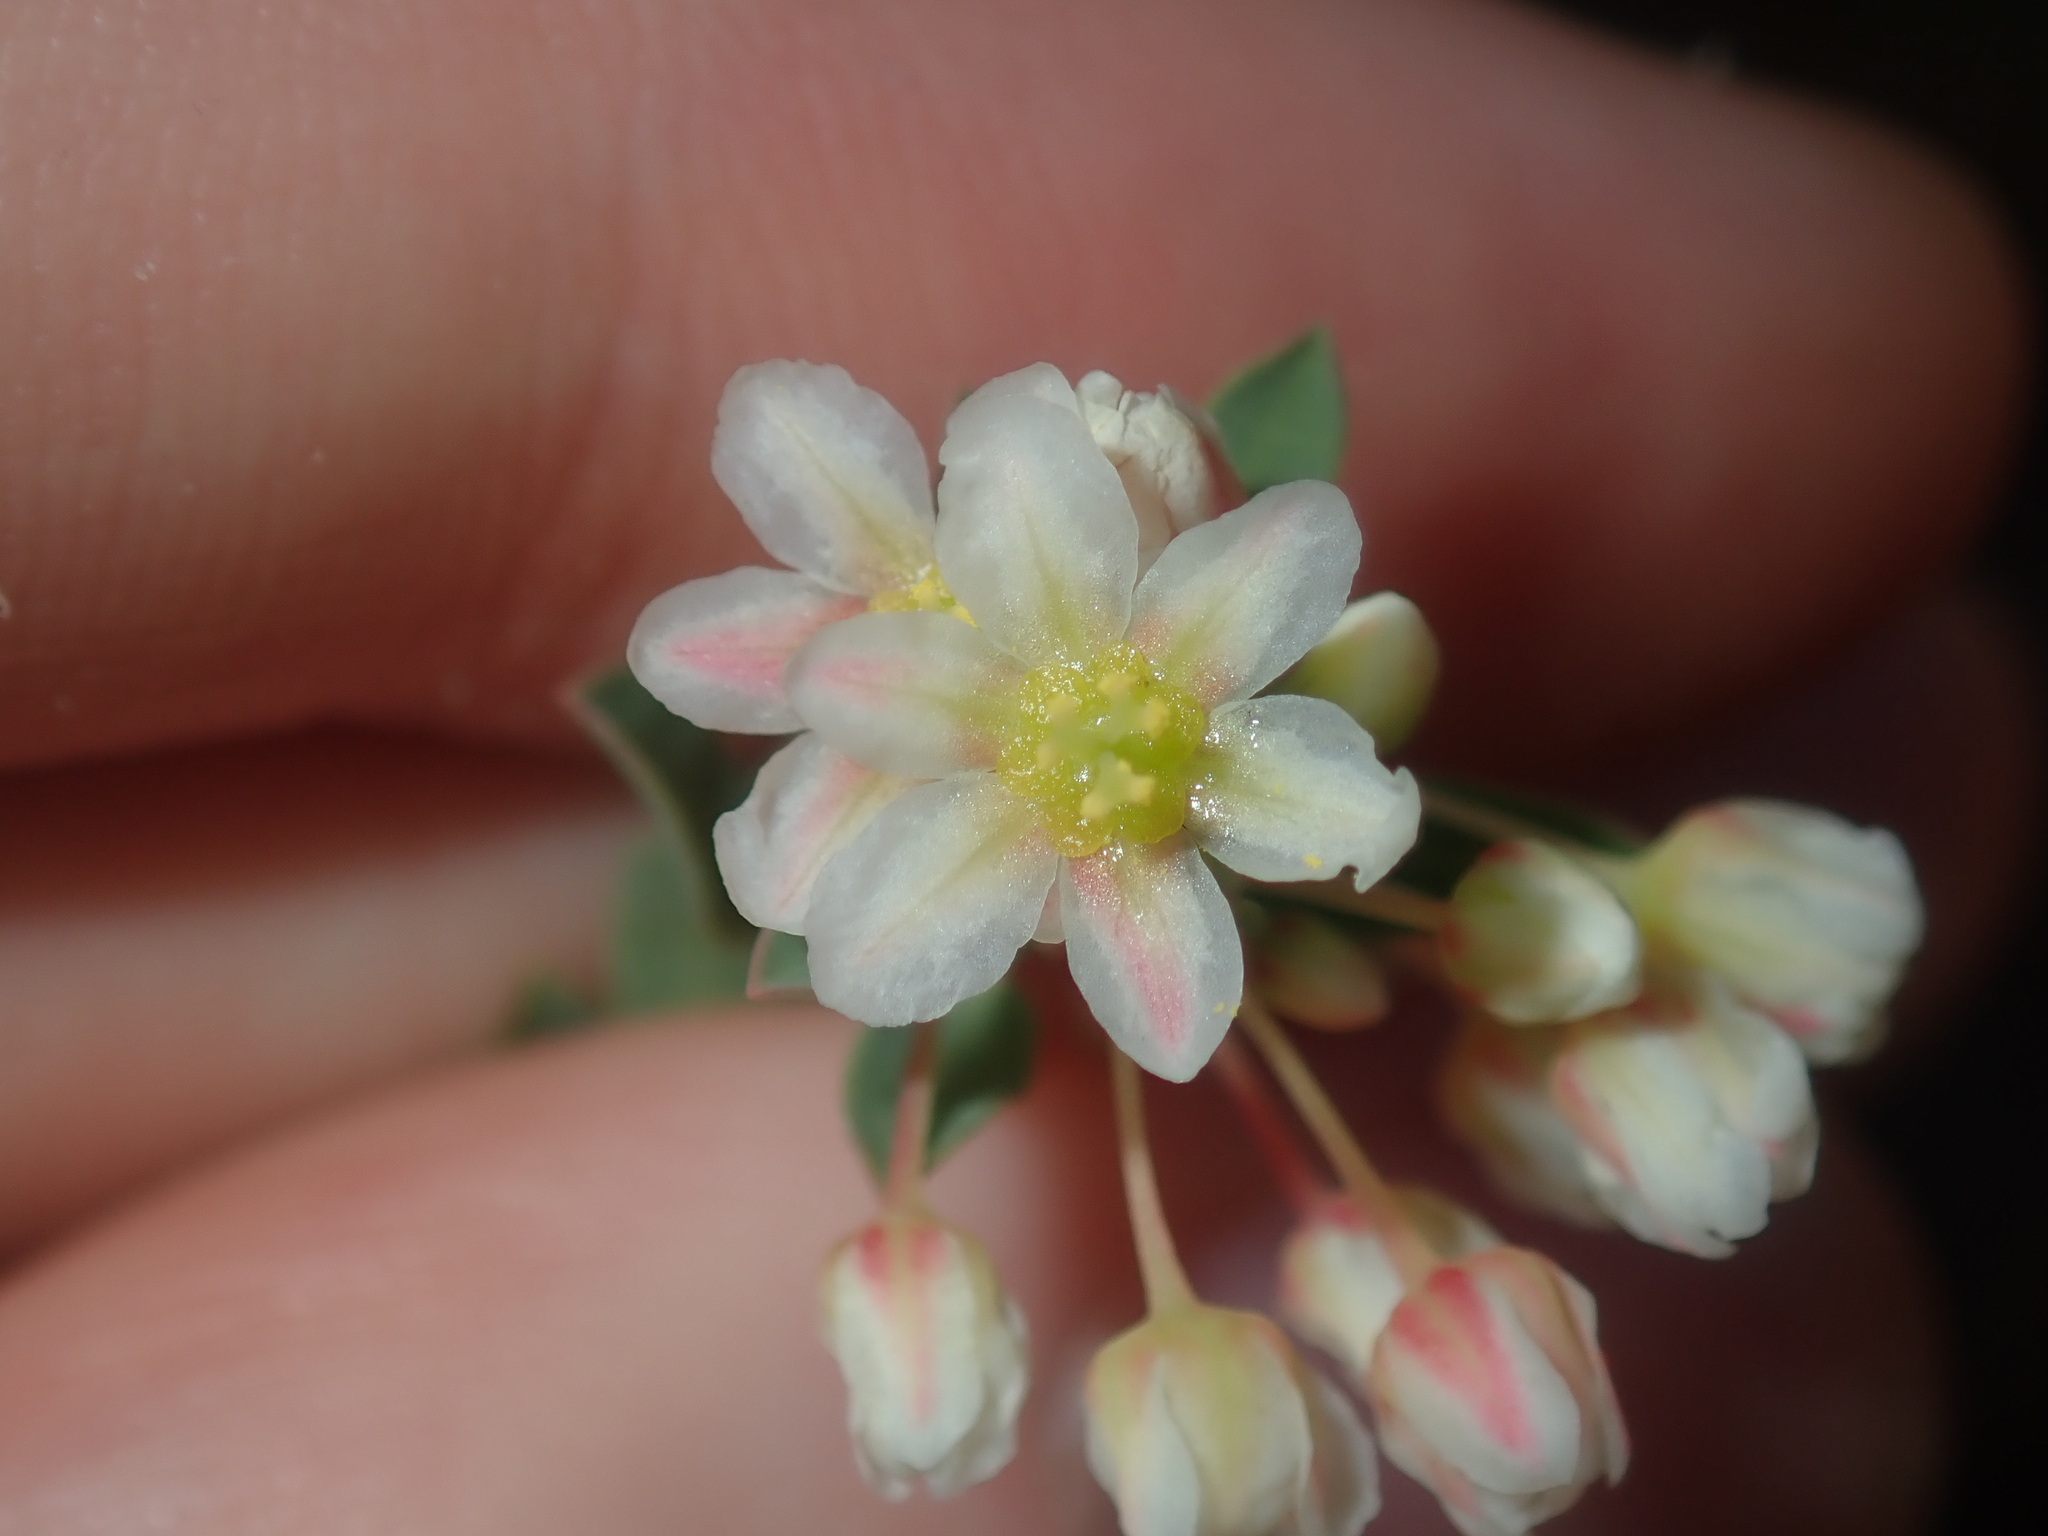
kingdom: Plantae
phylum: Tracheophyta
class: Magnoliopsida
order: Malpighiales
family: Phyllanthaceae
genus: Phyllanthus
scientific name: Phyllanthus calycinus
